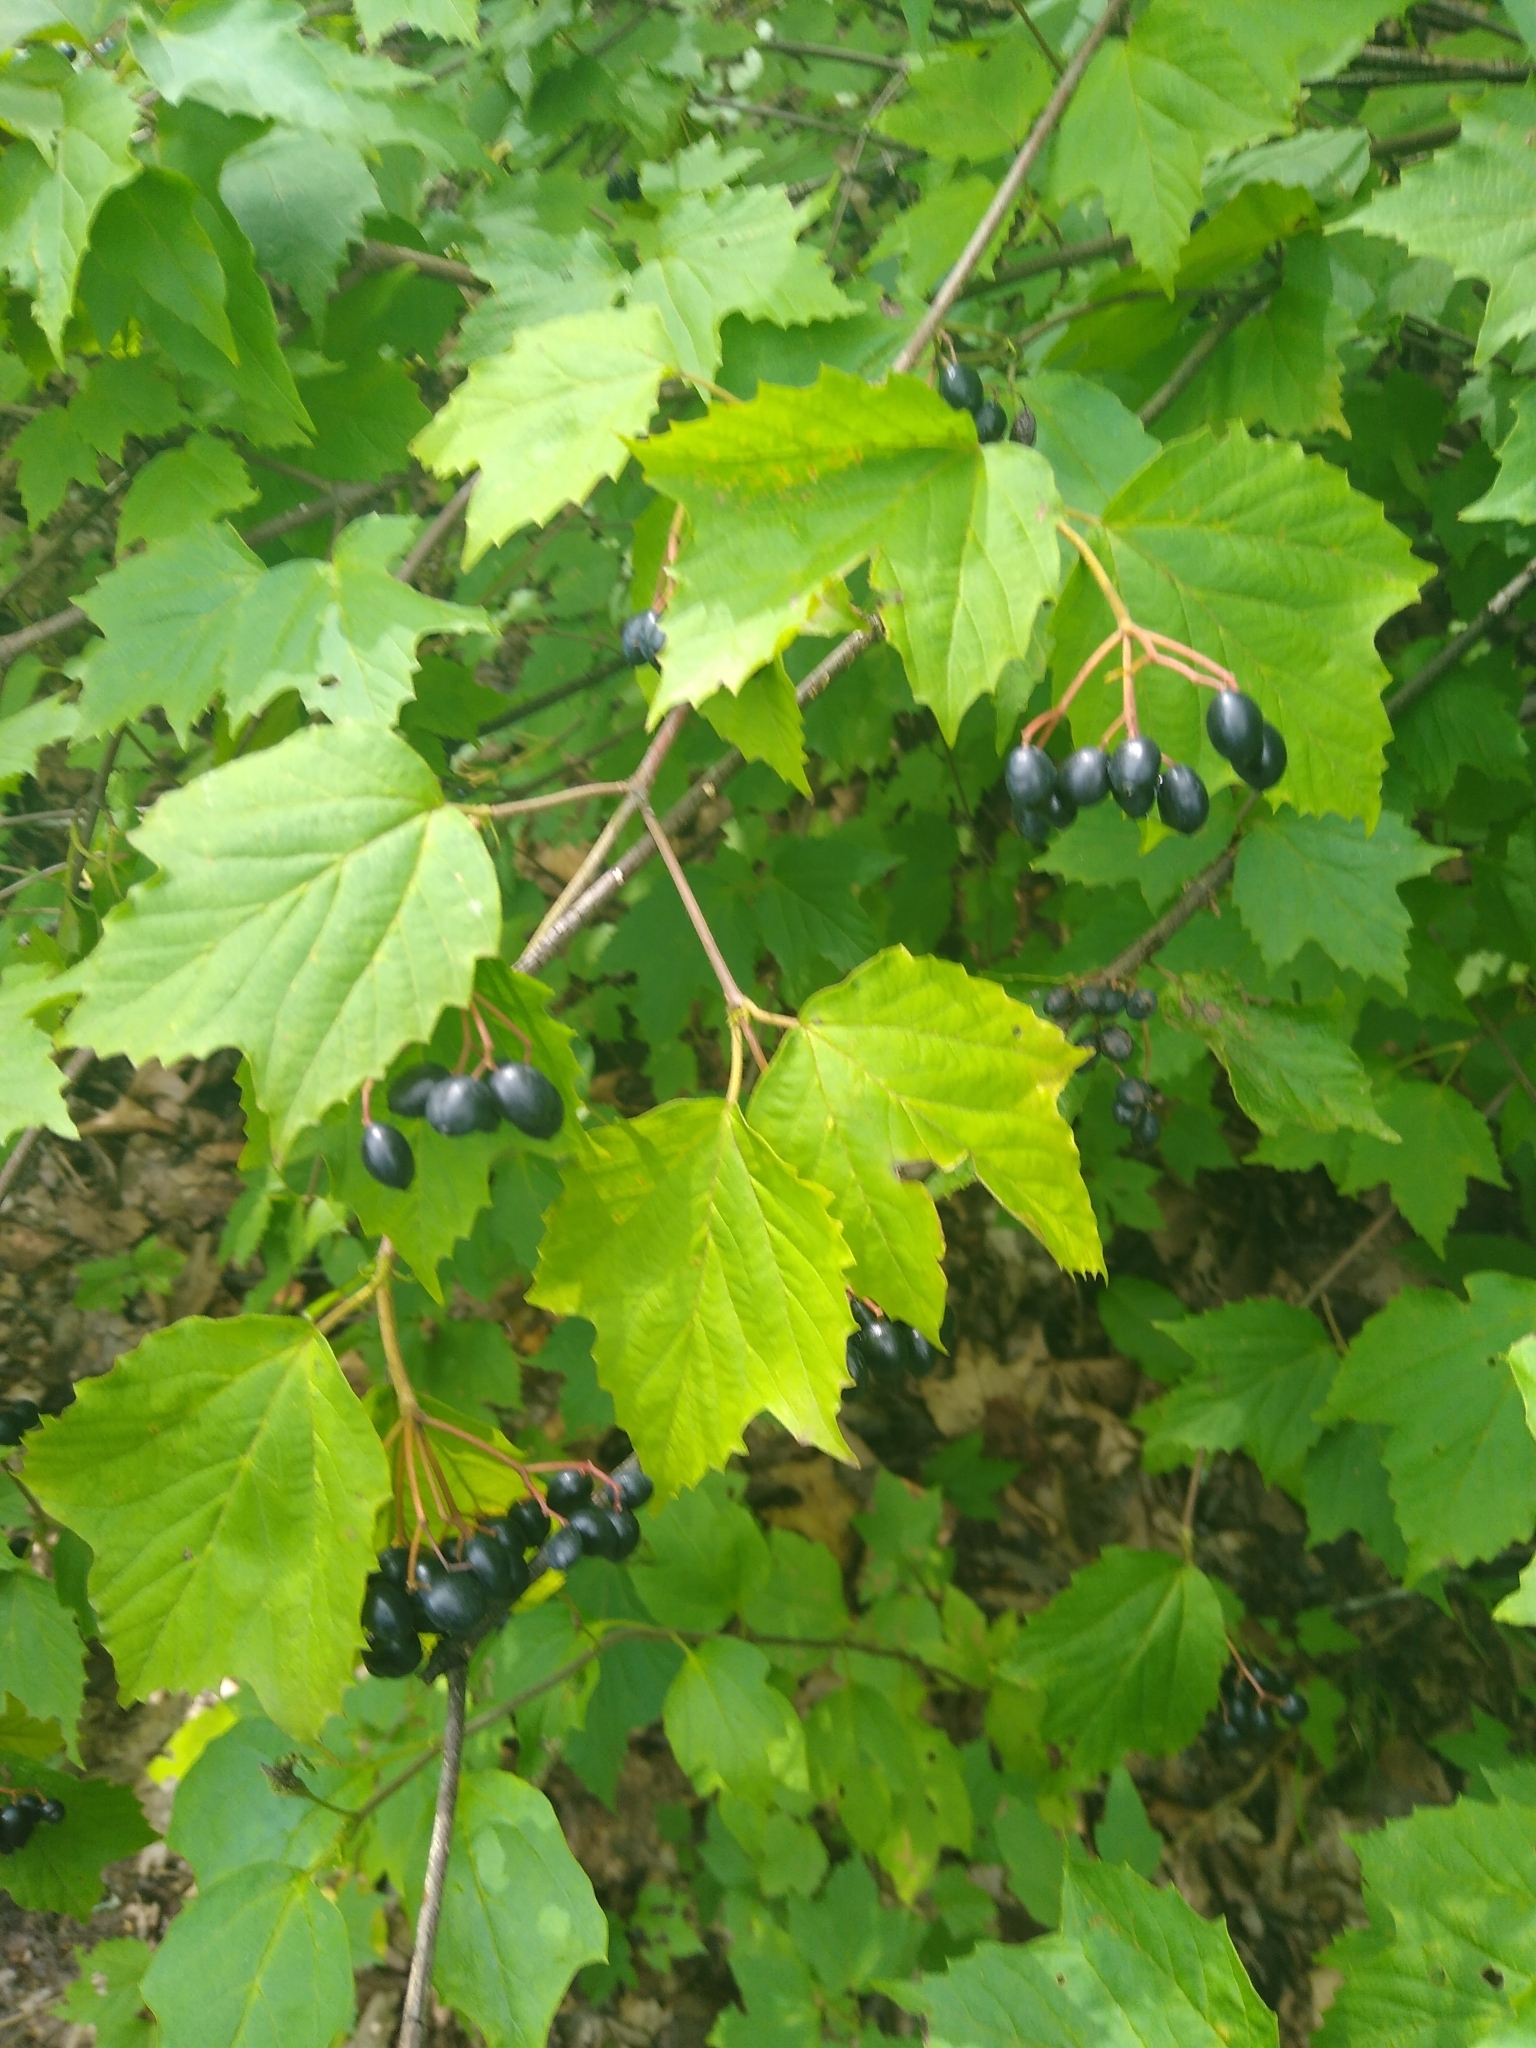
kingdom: Plantae
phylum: Tracheophyta
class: Magnoliopsida
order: Dipsacales
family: Viburnaceae
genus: Viburnum
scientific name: Viburnum acerifolium
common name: Dockmackie
